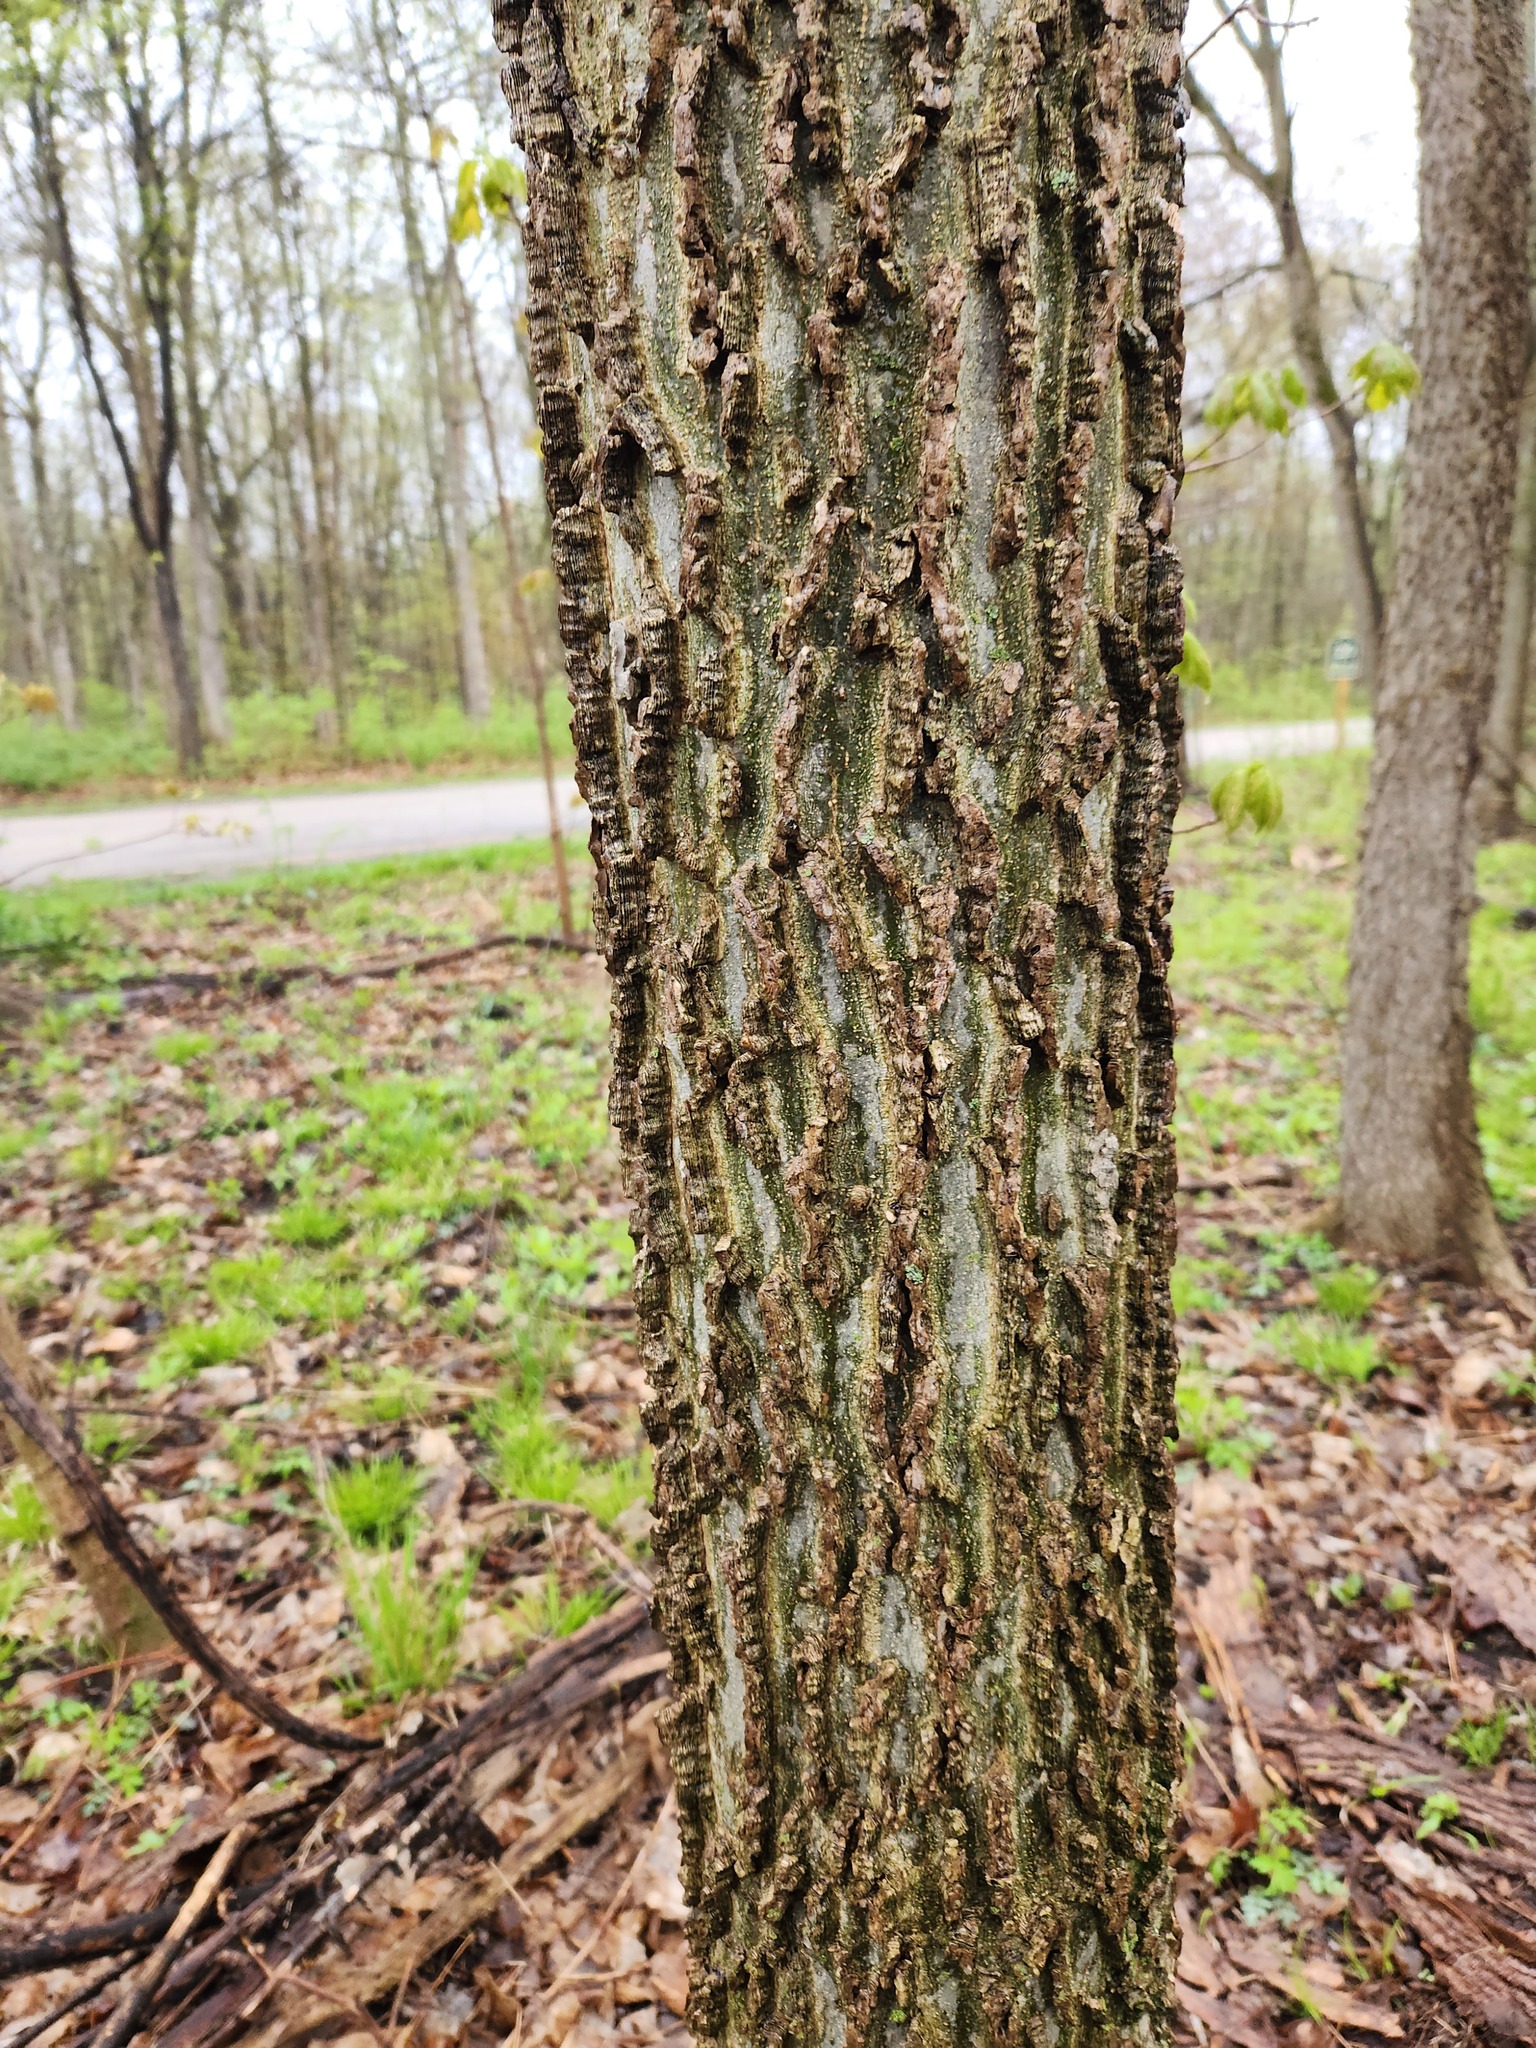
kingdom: Plantae
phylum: Tracheophyta
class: Magnoliopsida
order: Rosales
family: Cannabaceae
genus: Celtis
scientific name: Celtis occidentalis
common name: Common hackberry
